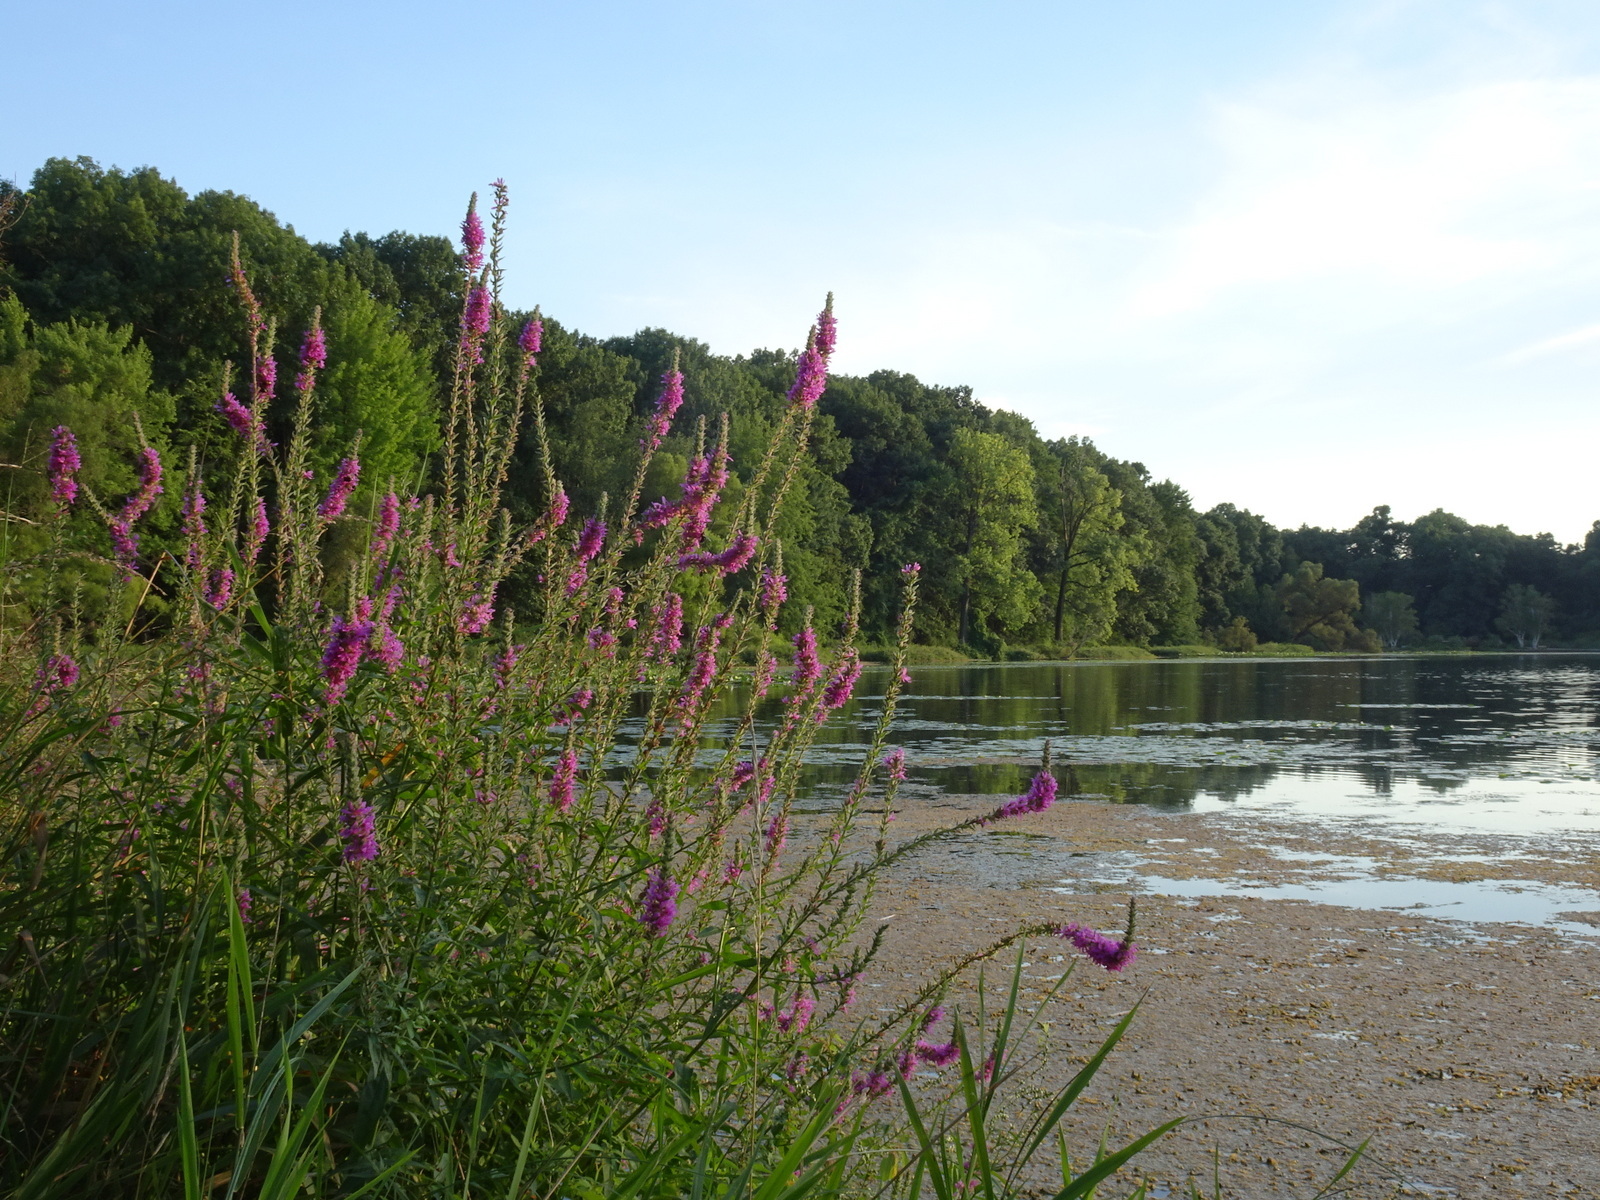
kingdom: Plantae
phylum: Tracheophyta
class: Magnoliopsida
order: Myrtales
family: Lythraceae
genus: Lythrum
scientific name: Lythrum salicaria
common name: Purple loosestrife
